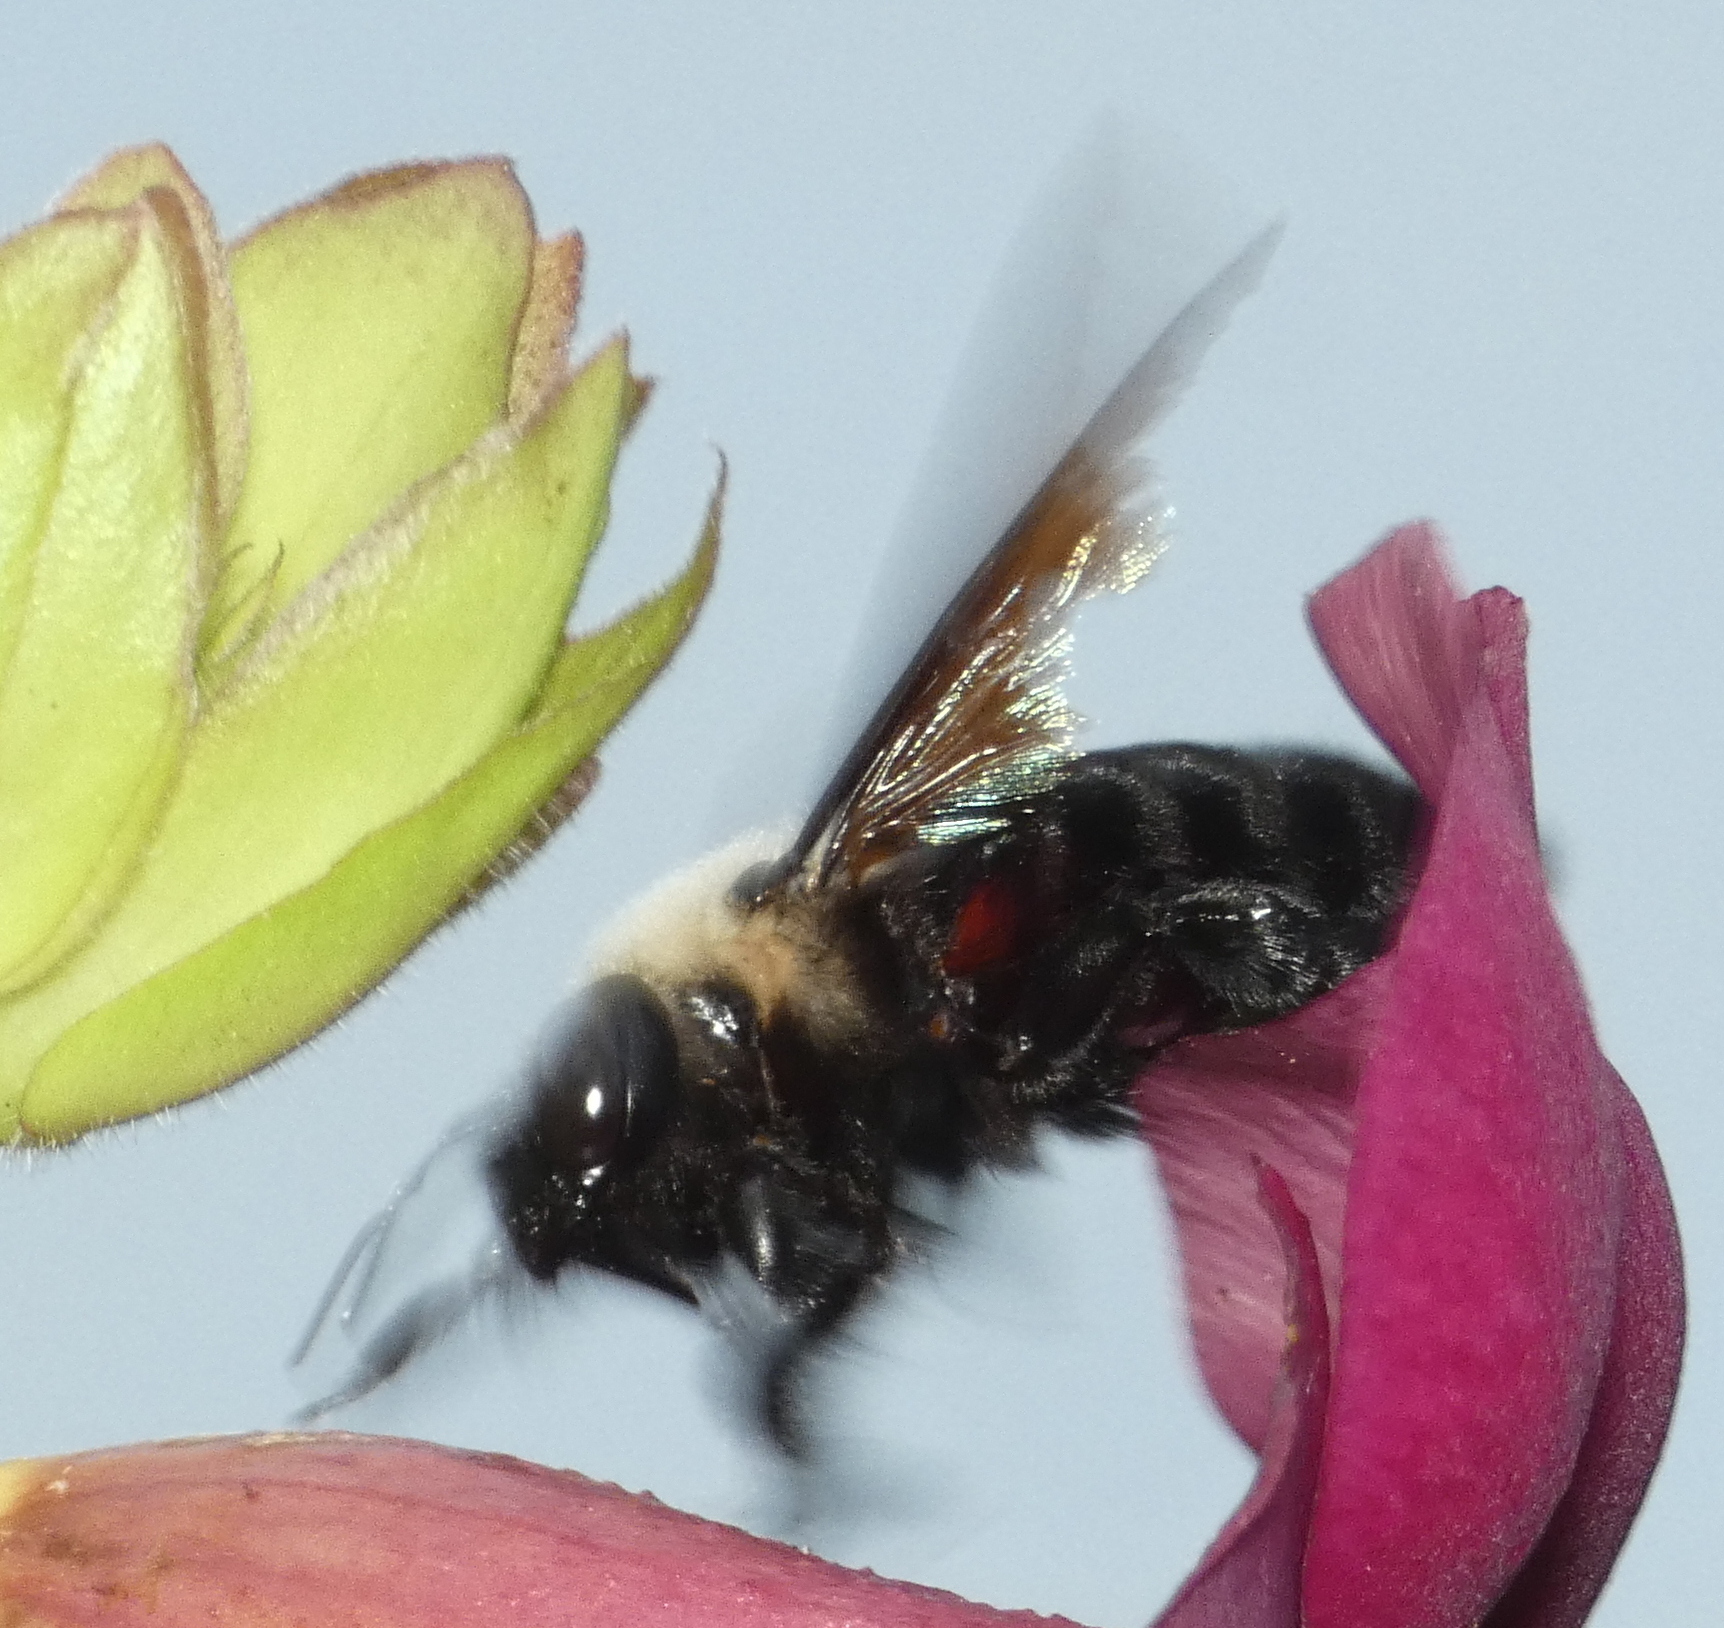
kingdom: Animalia
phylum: Arthropoda
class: Insecta
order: Hymenoptera
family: Apidae
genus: Xylocopa
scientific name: Xylocopa grisescens
